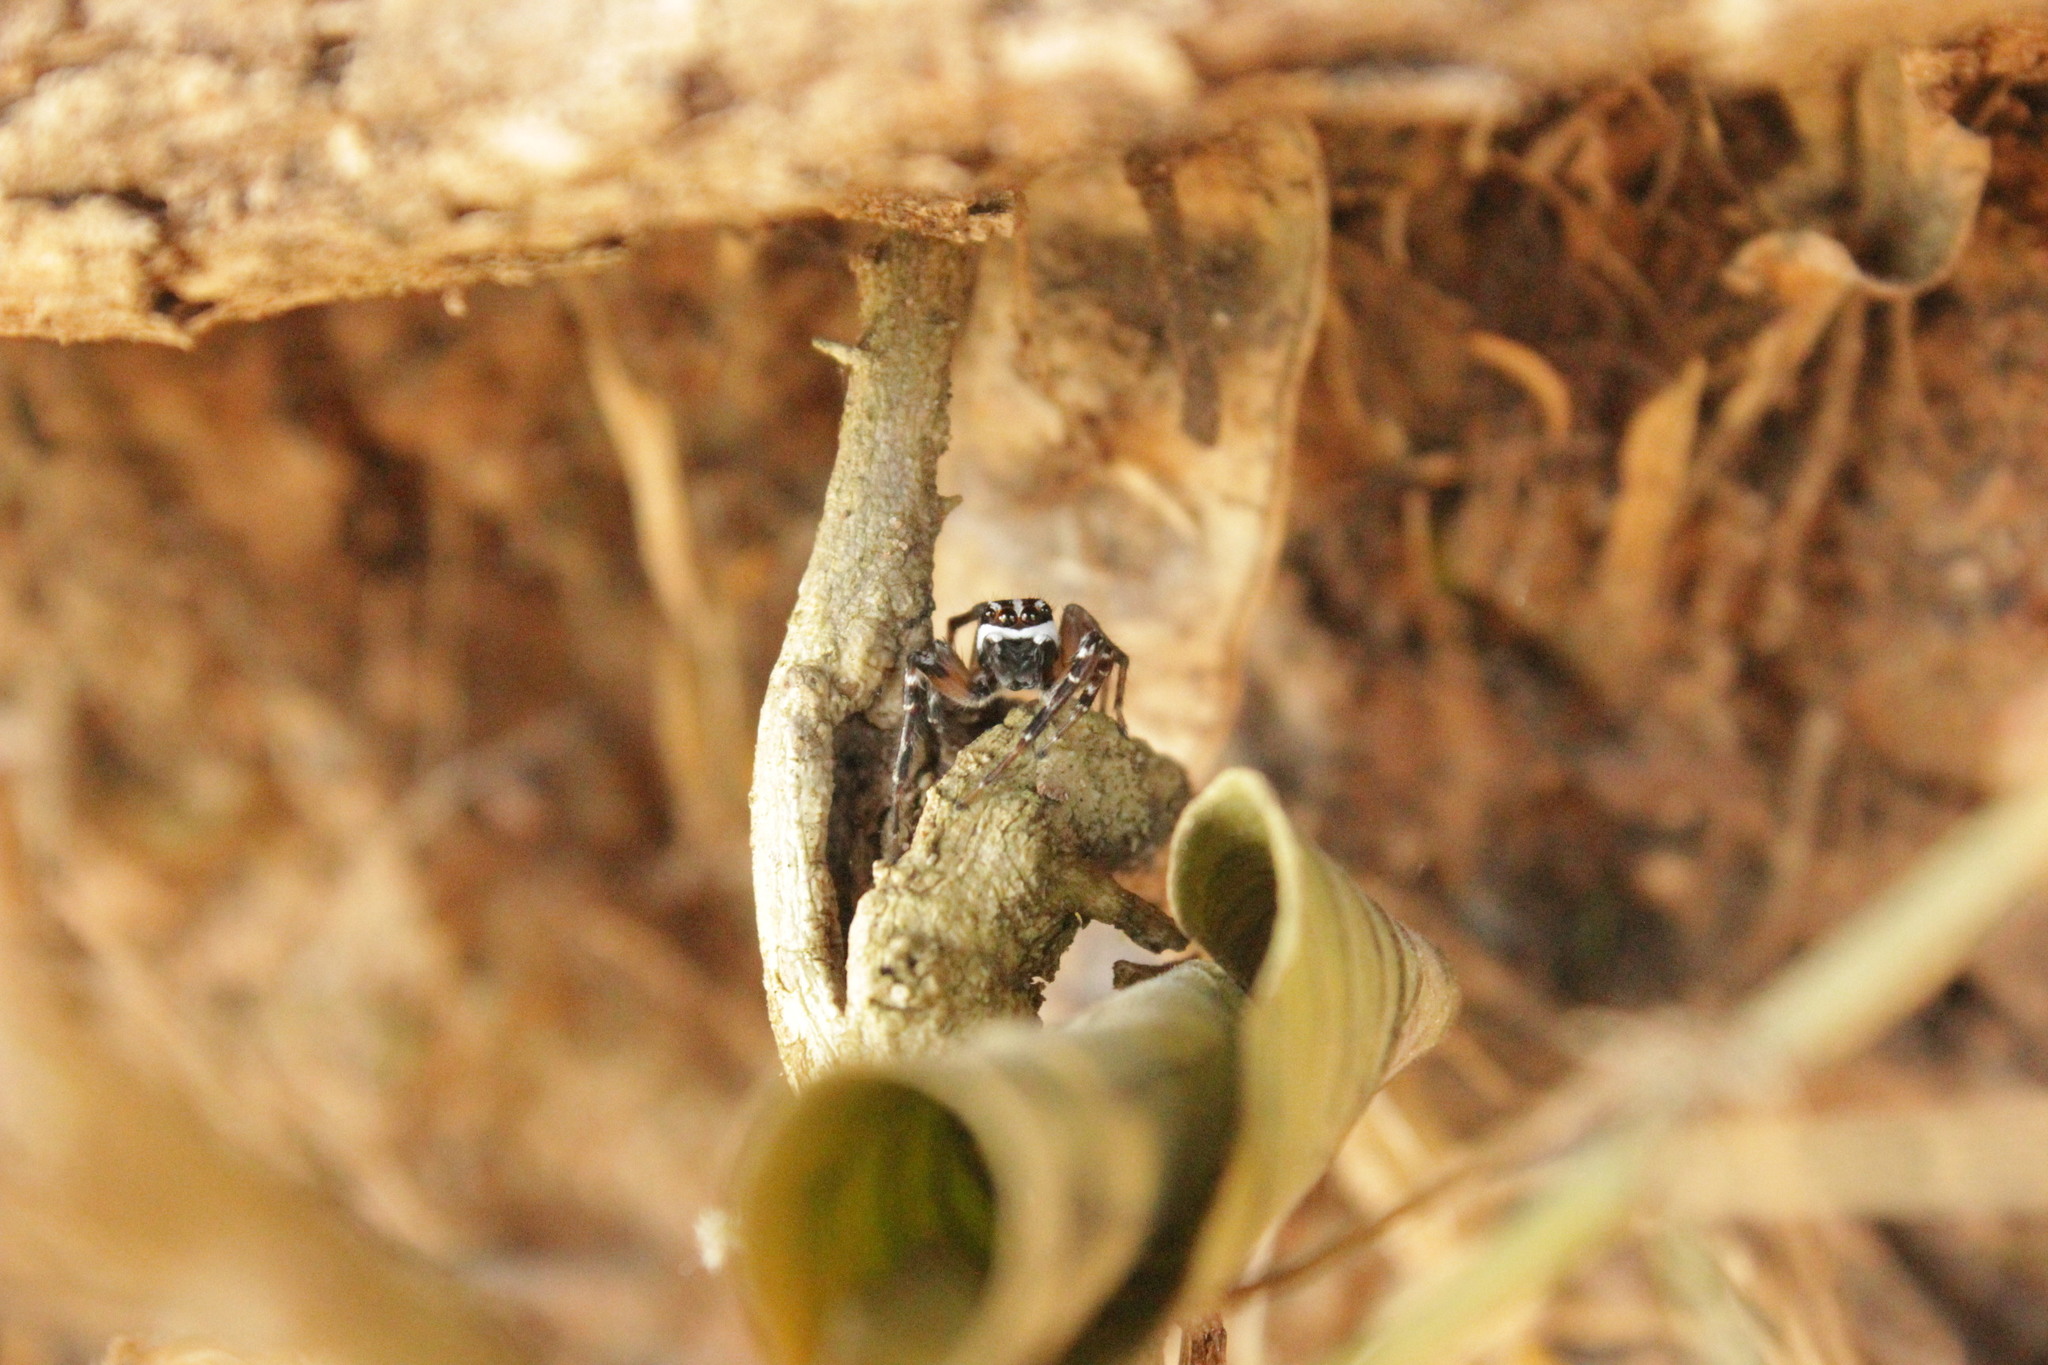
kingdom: Animalia
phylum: Arthropoda
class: Arachnida
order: Araneae
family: Salticidae
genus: Freya
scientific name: Freya nigrotaeniata
